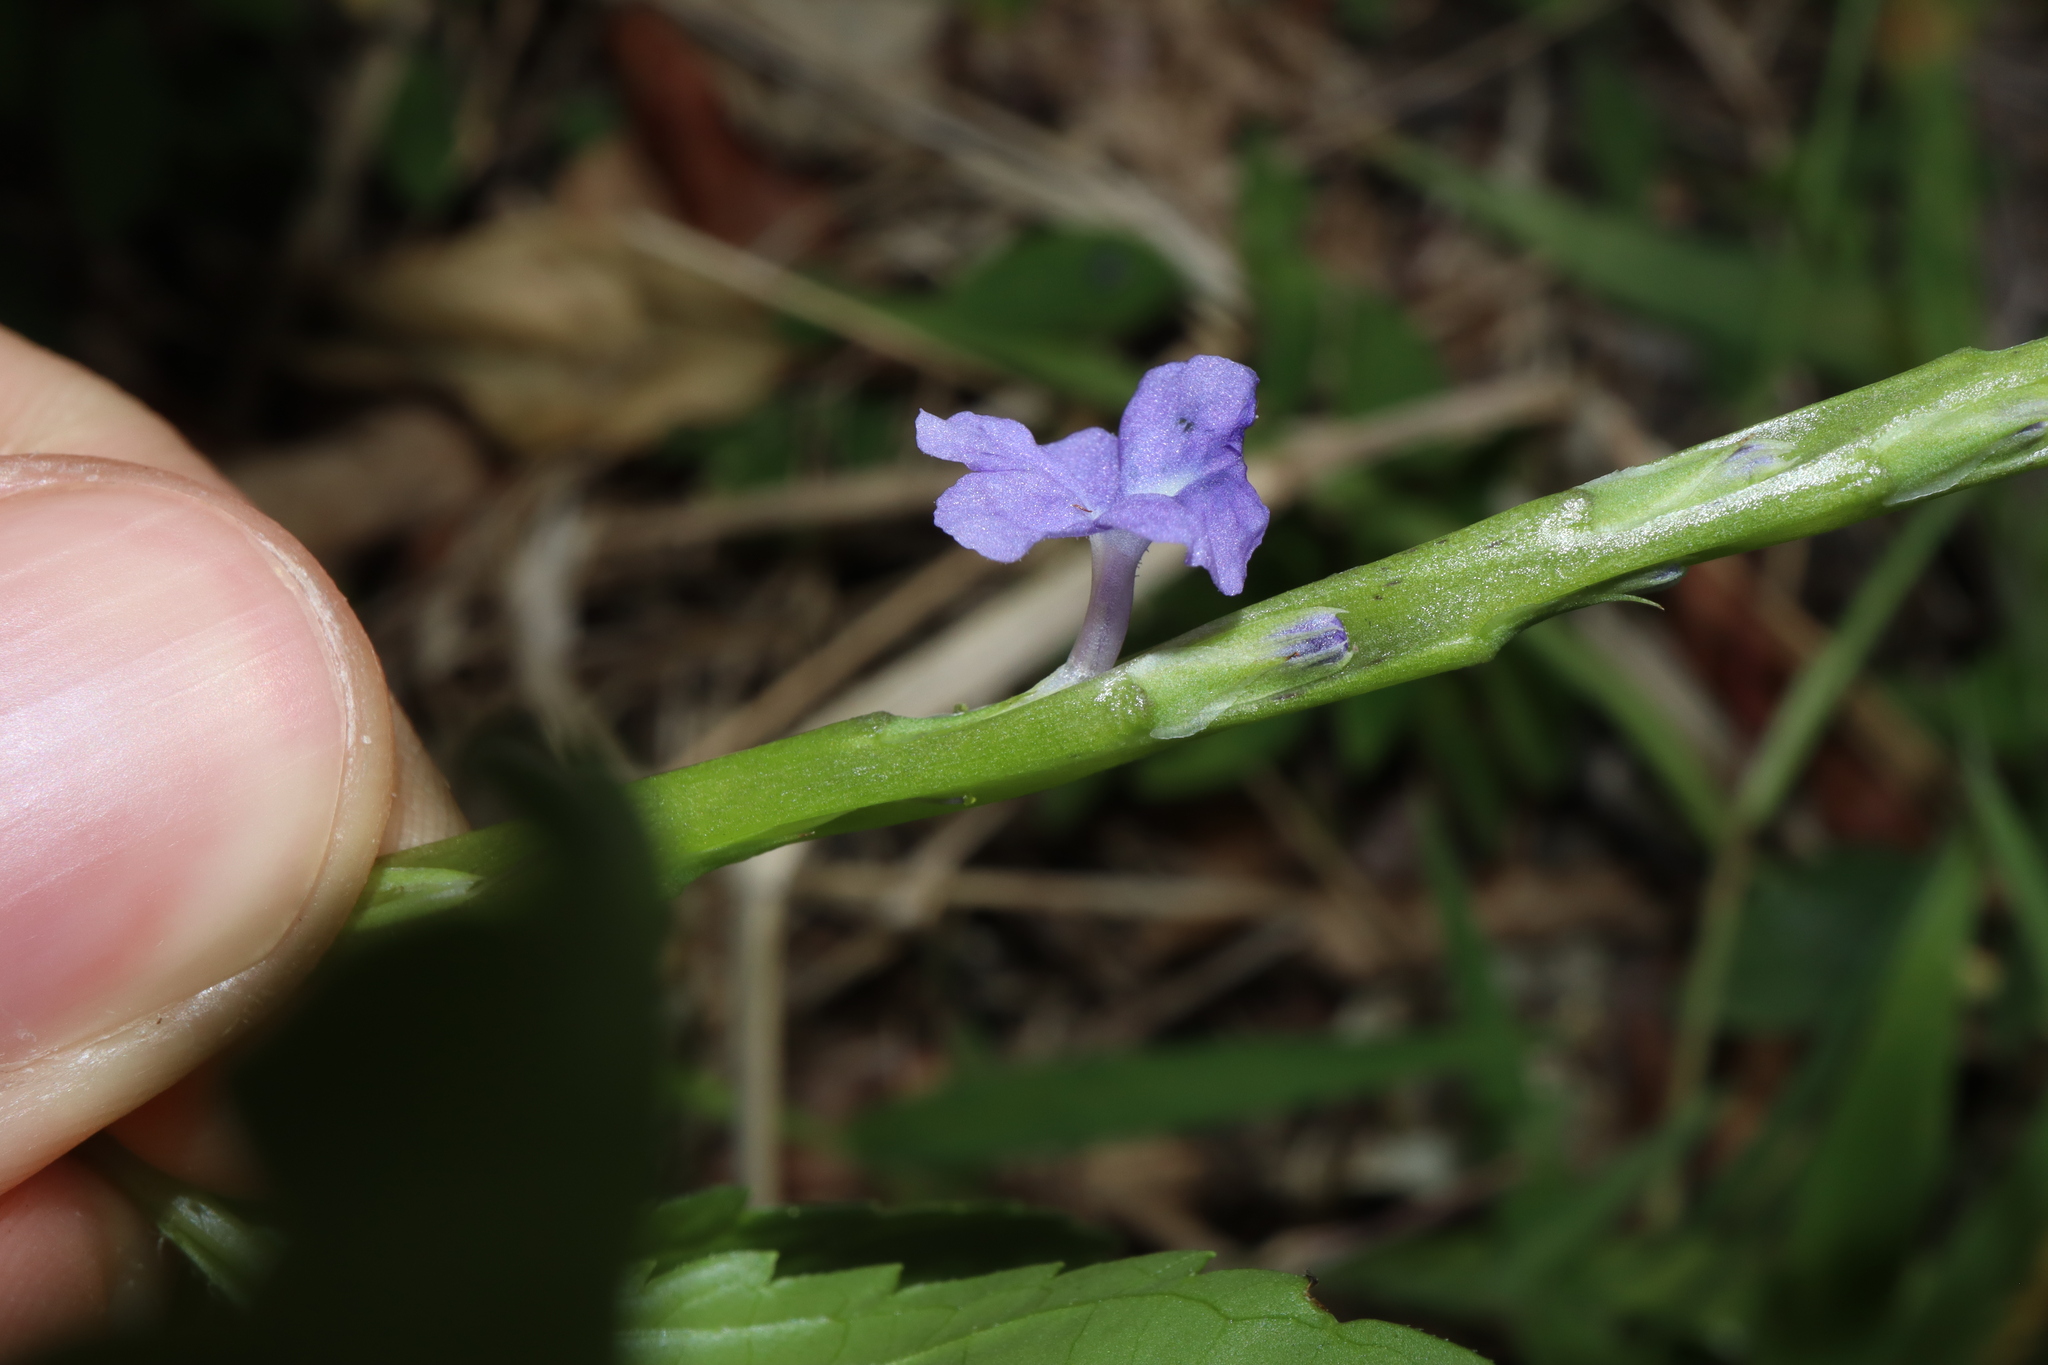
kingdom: Plantae
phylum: Tracheophyta
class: Magnoliopsida
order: Lamiales
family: Verbenaceae
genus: Stachytarpheta
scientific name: Stachytarpheta jamaicensis
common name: Light-blue snakeweed
